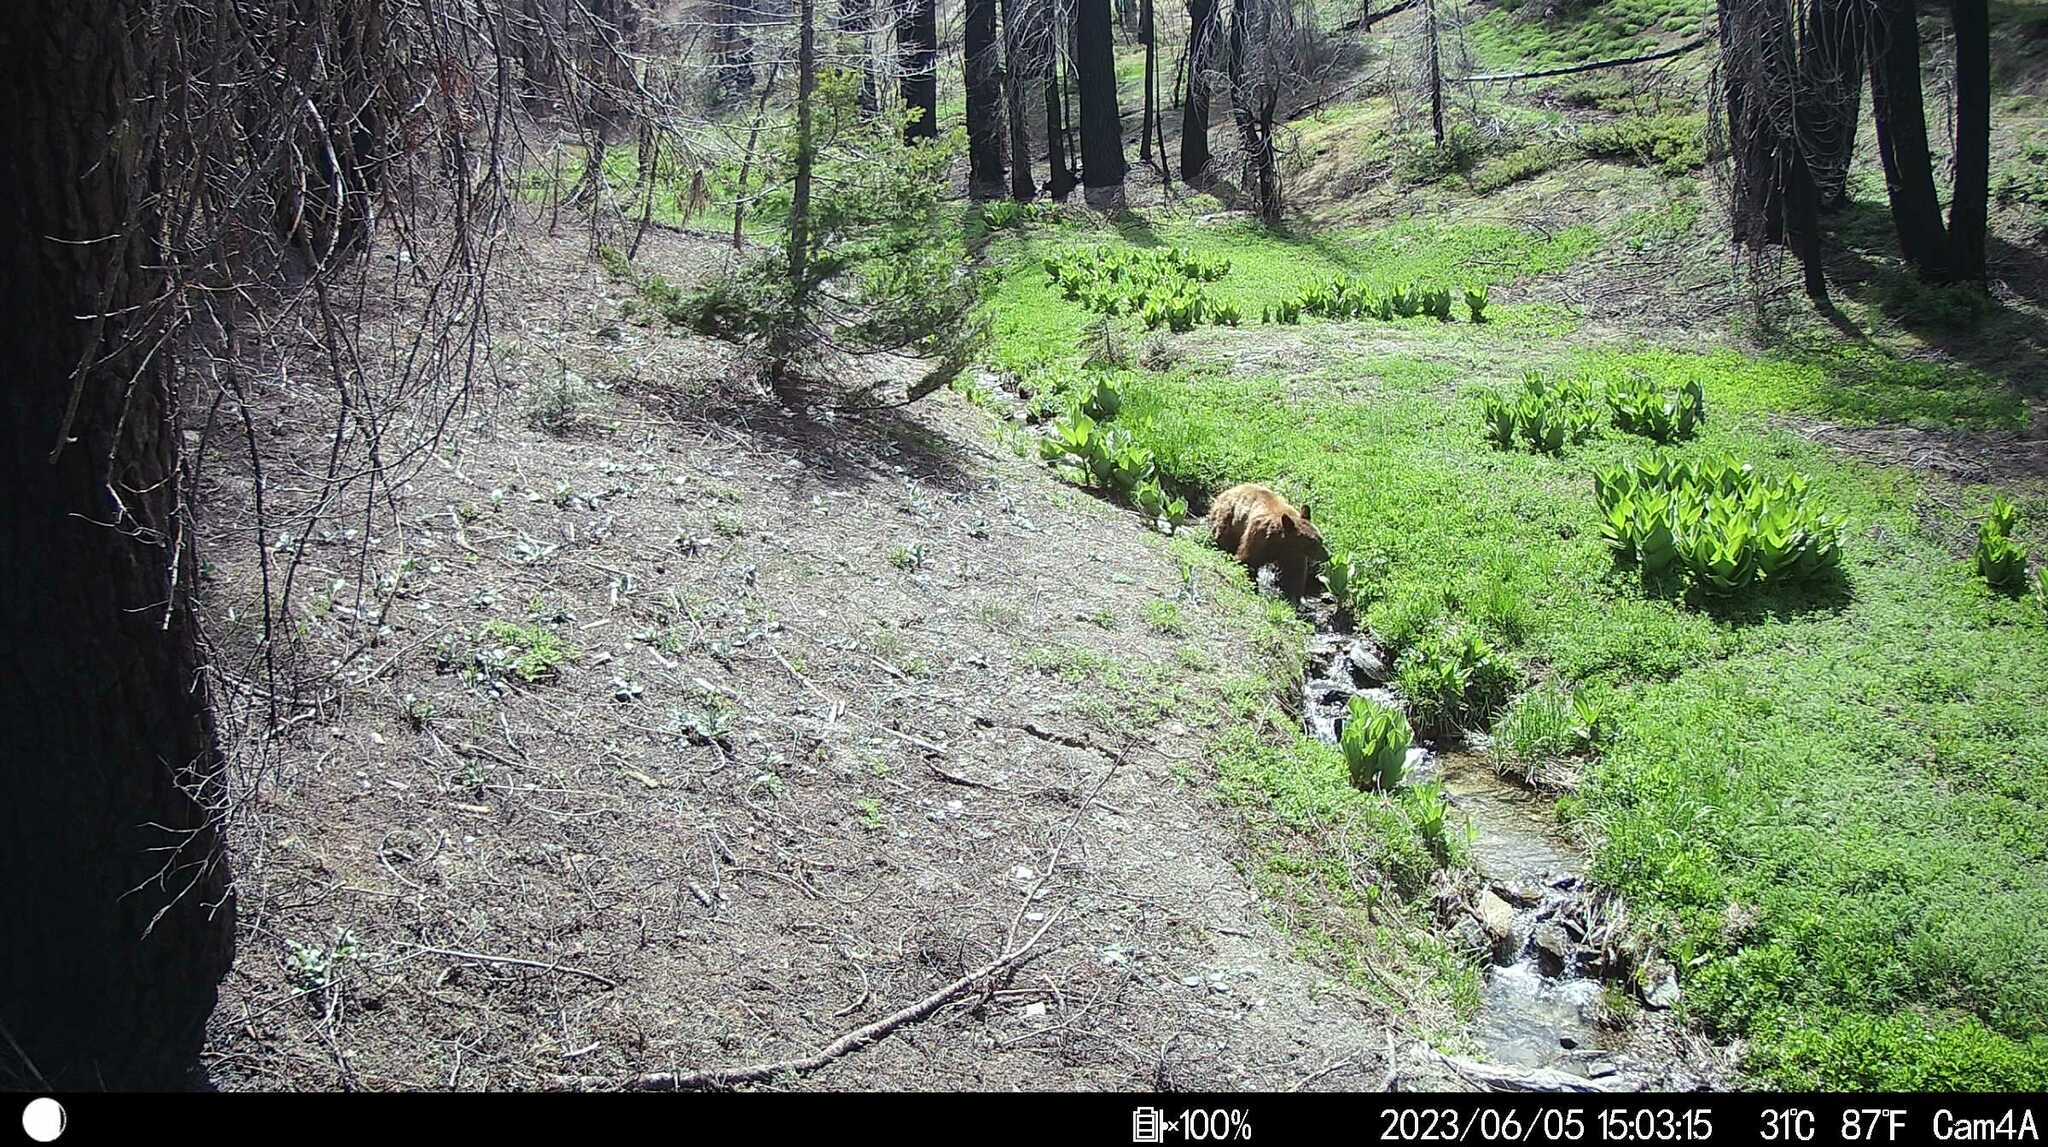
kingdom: Animalia
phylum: Chordata
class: Mammalia
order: Carnivora
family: Ursidae
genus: Ursus
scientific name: Ursus americanus
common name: American black bear
